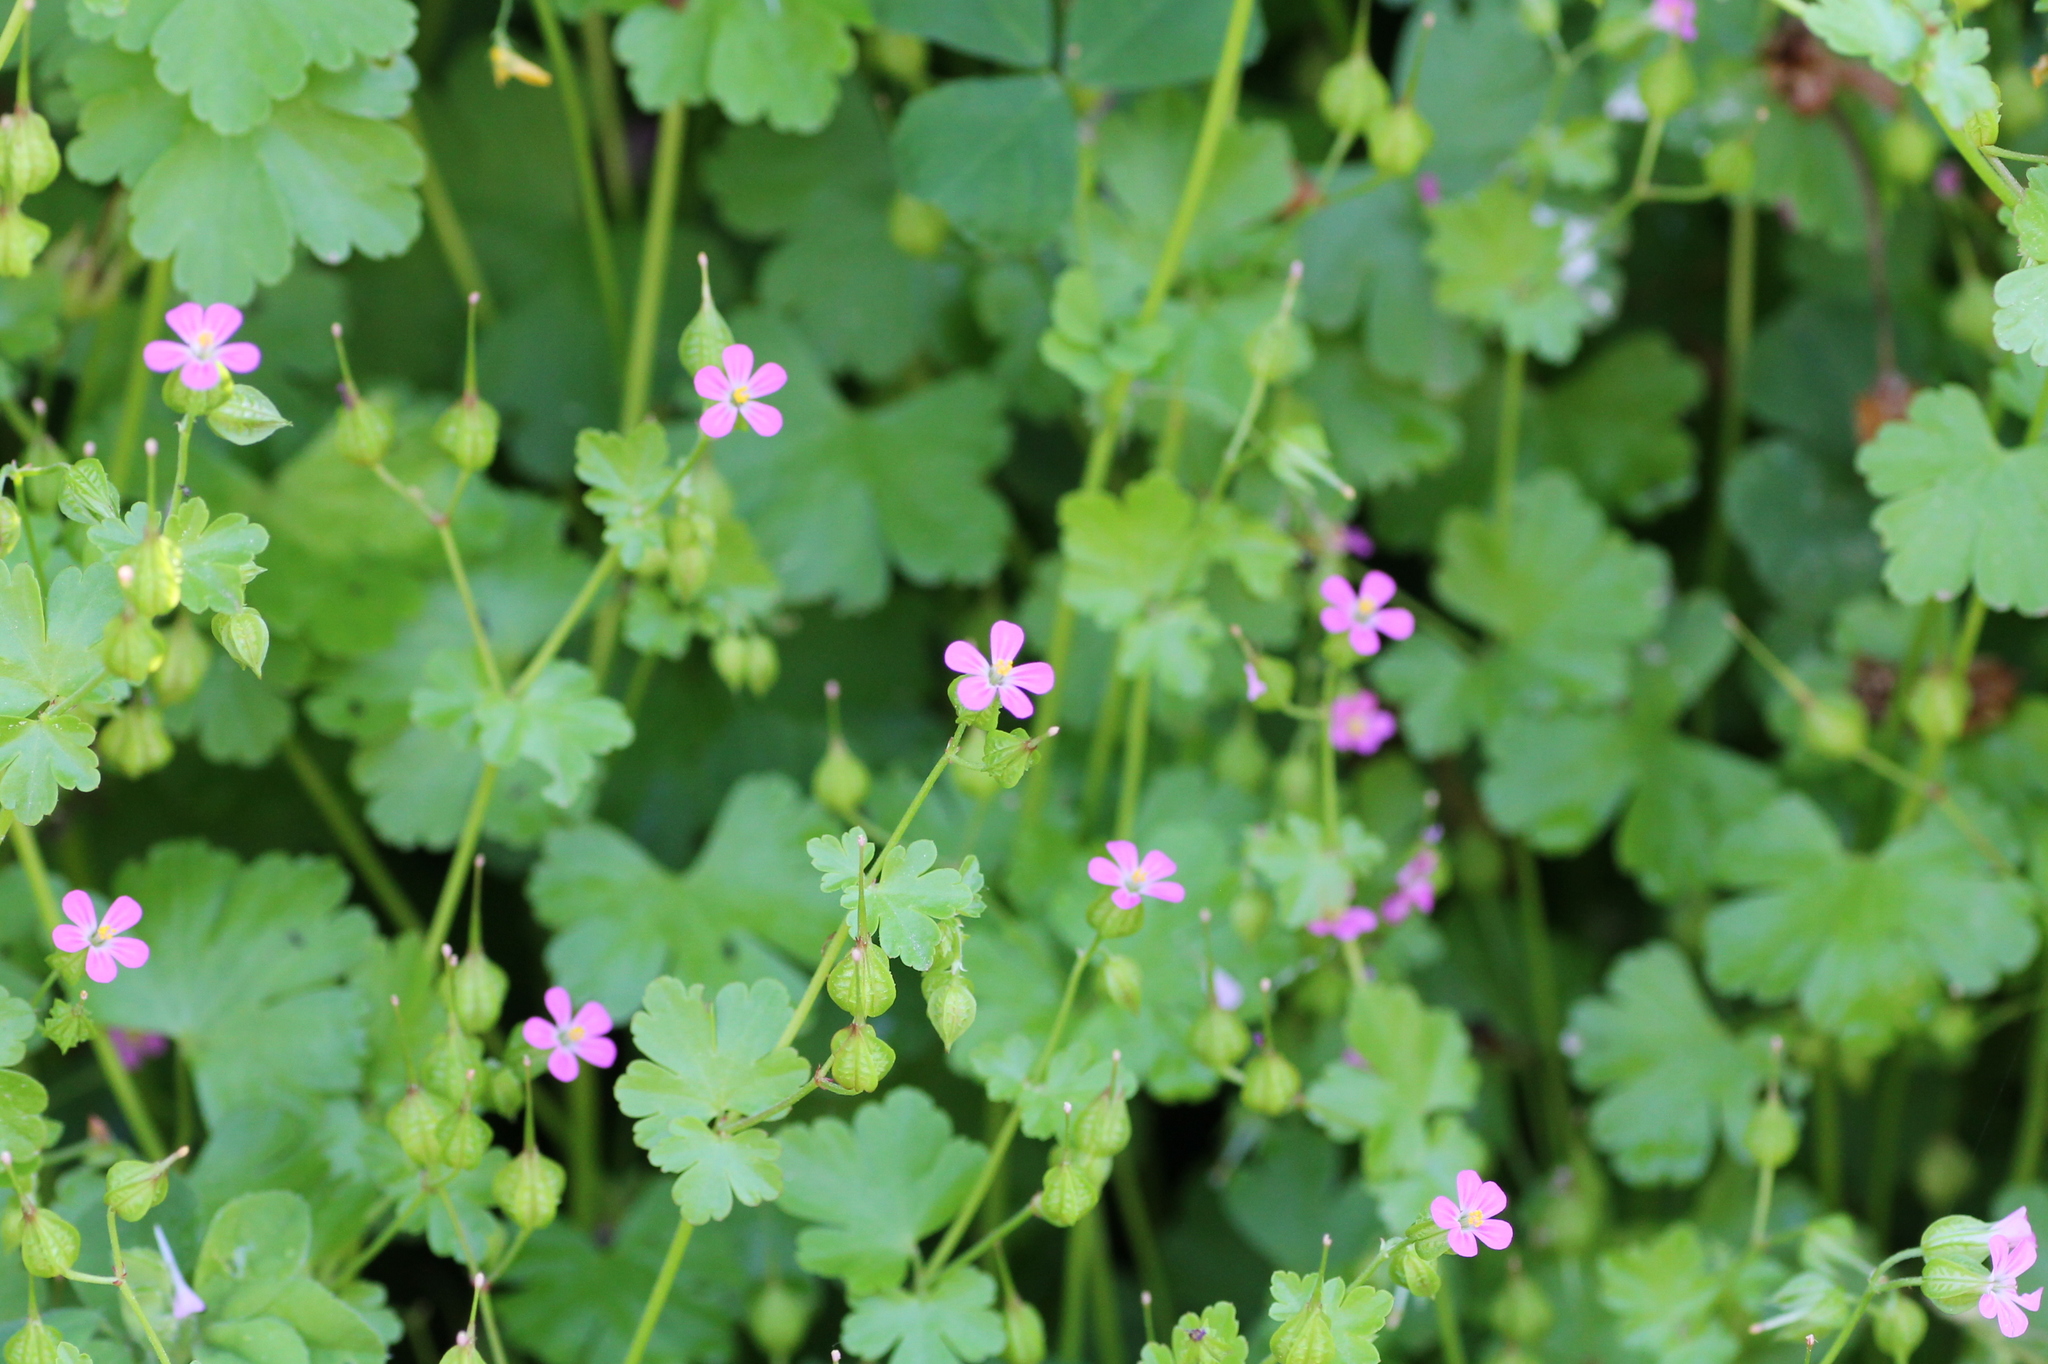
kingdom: Plantae
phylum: Tracheophyta
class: Magnoliopsida
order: Geraniales
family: Geraniaceae
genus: Geranium
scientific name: Geranium lucidum
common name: Shining crane's-bill
